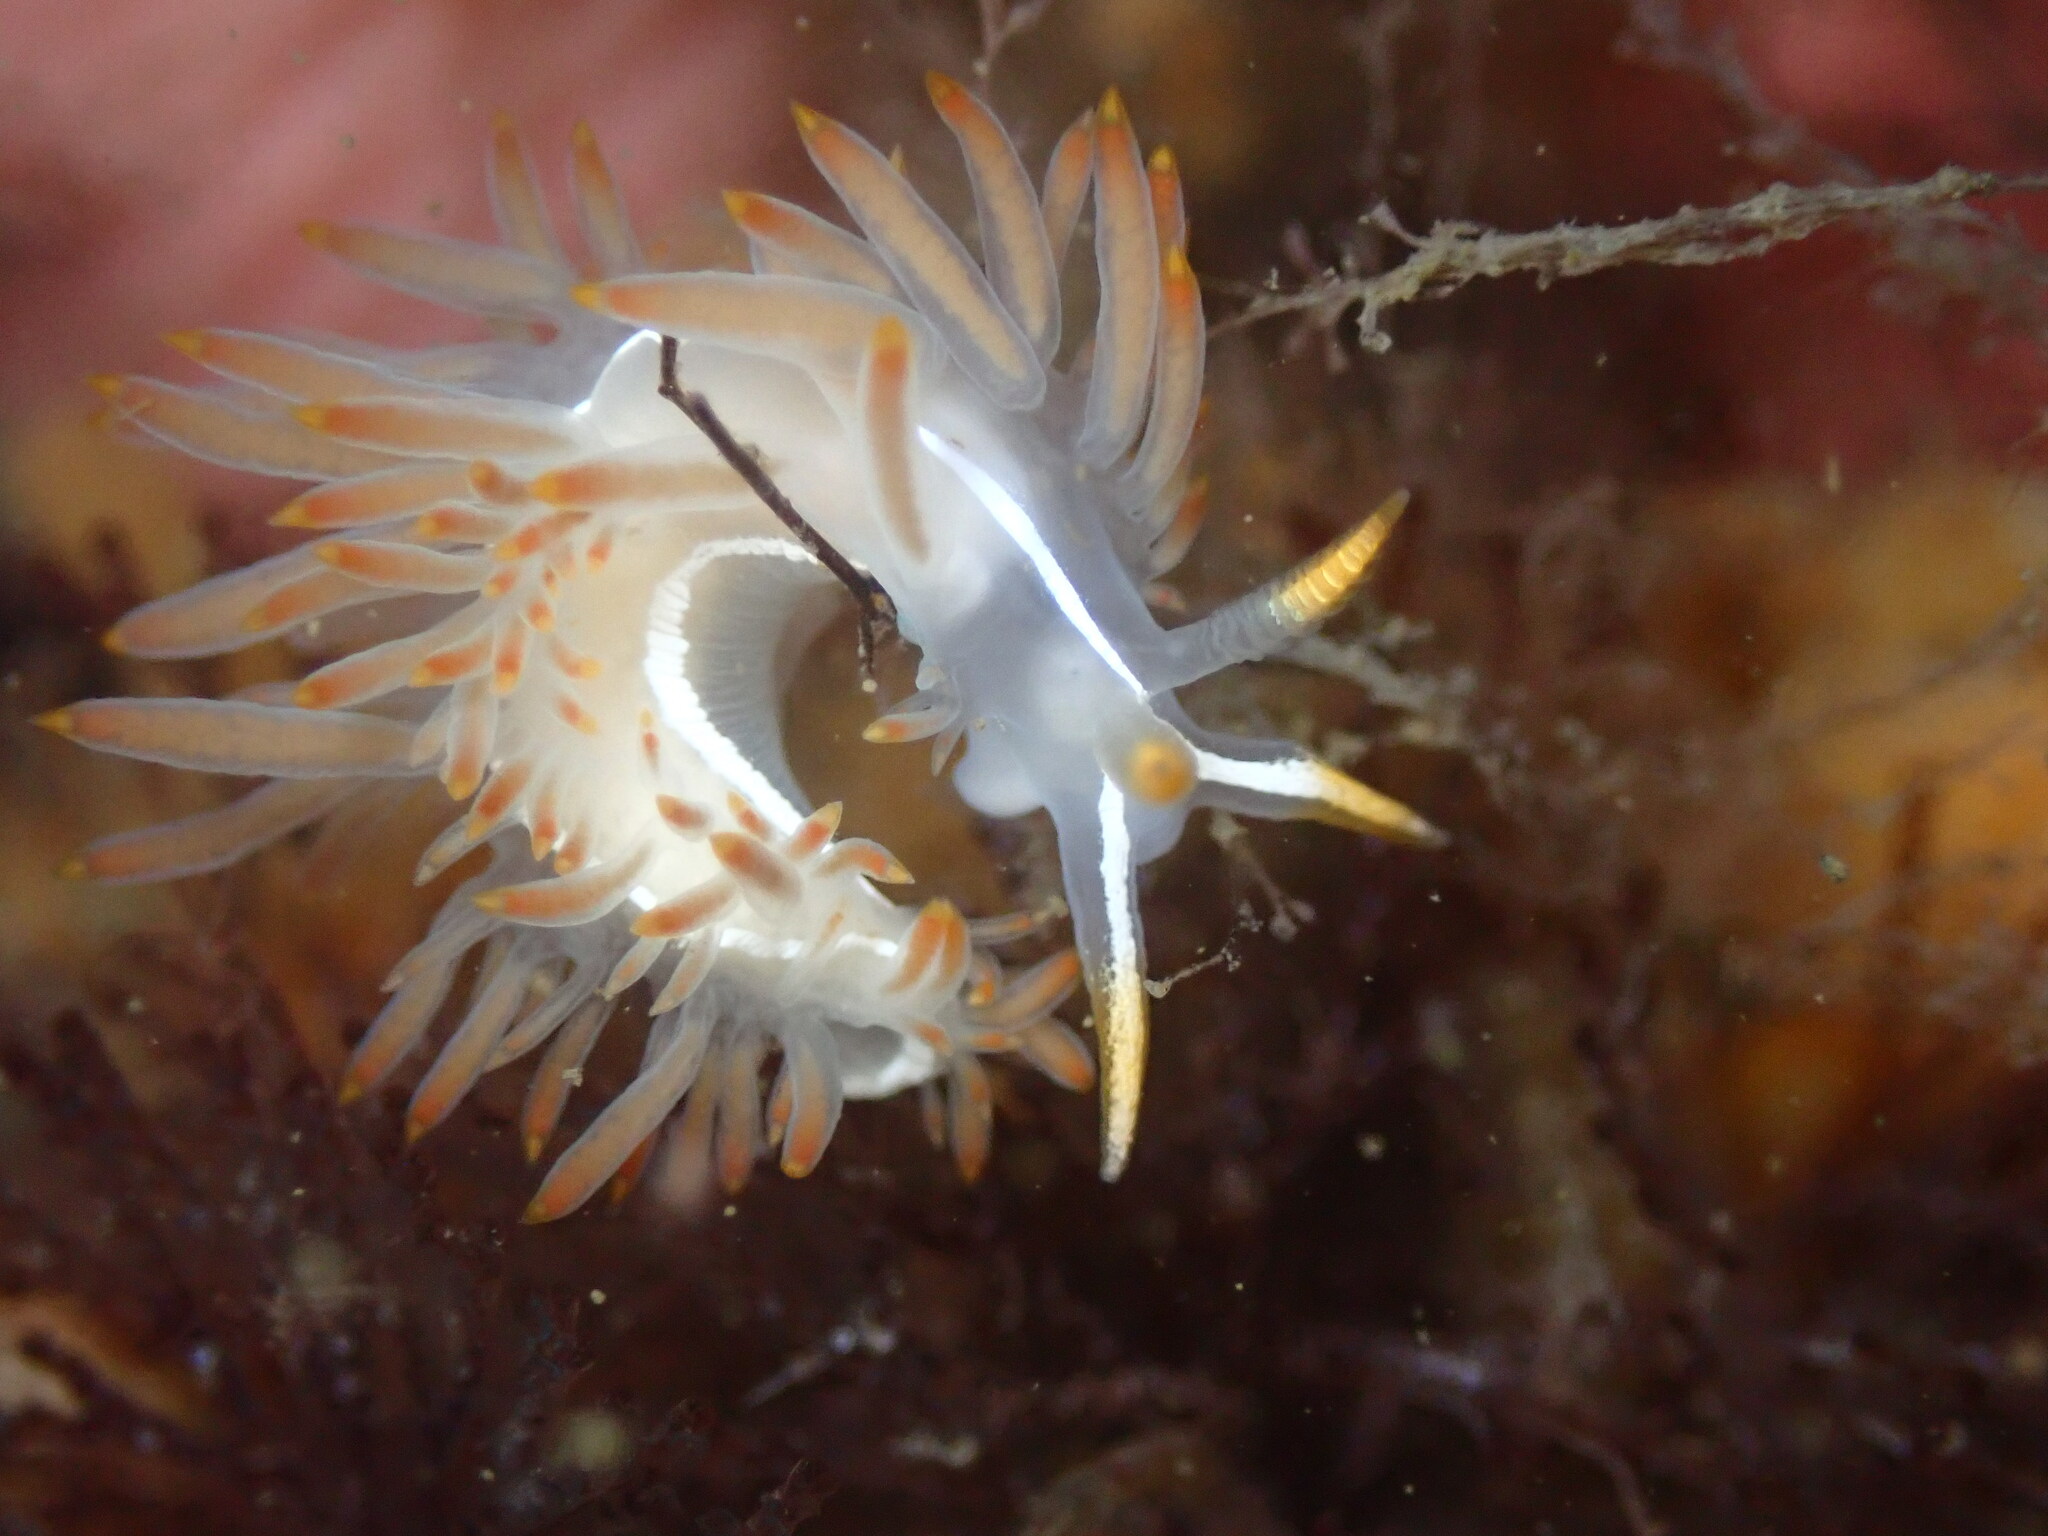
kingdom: Animalia
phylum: Mollusca
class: Gastropoda
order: Nudibranchia
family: Coryphellidae
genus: Coryphella
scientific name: Coryphella trilineata
